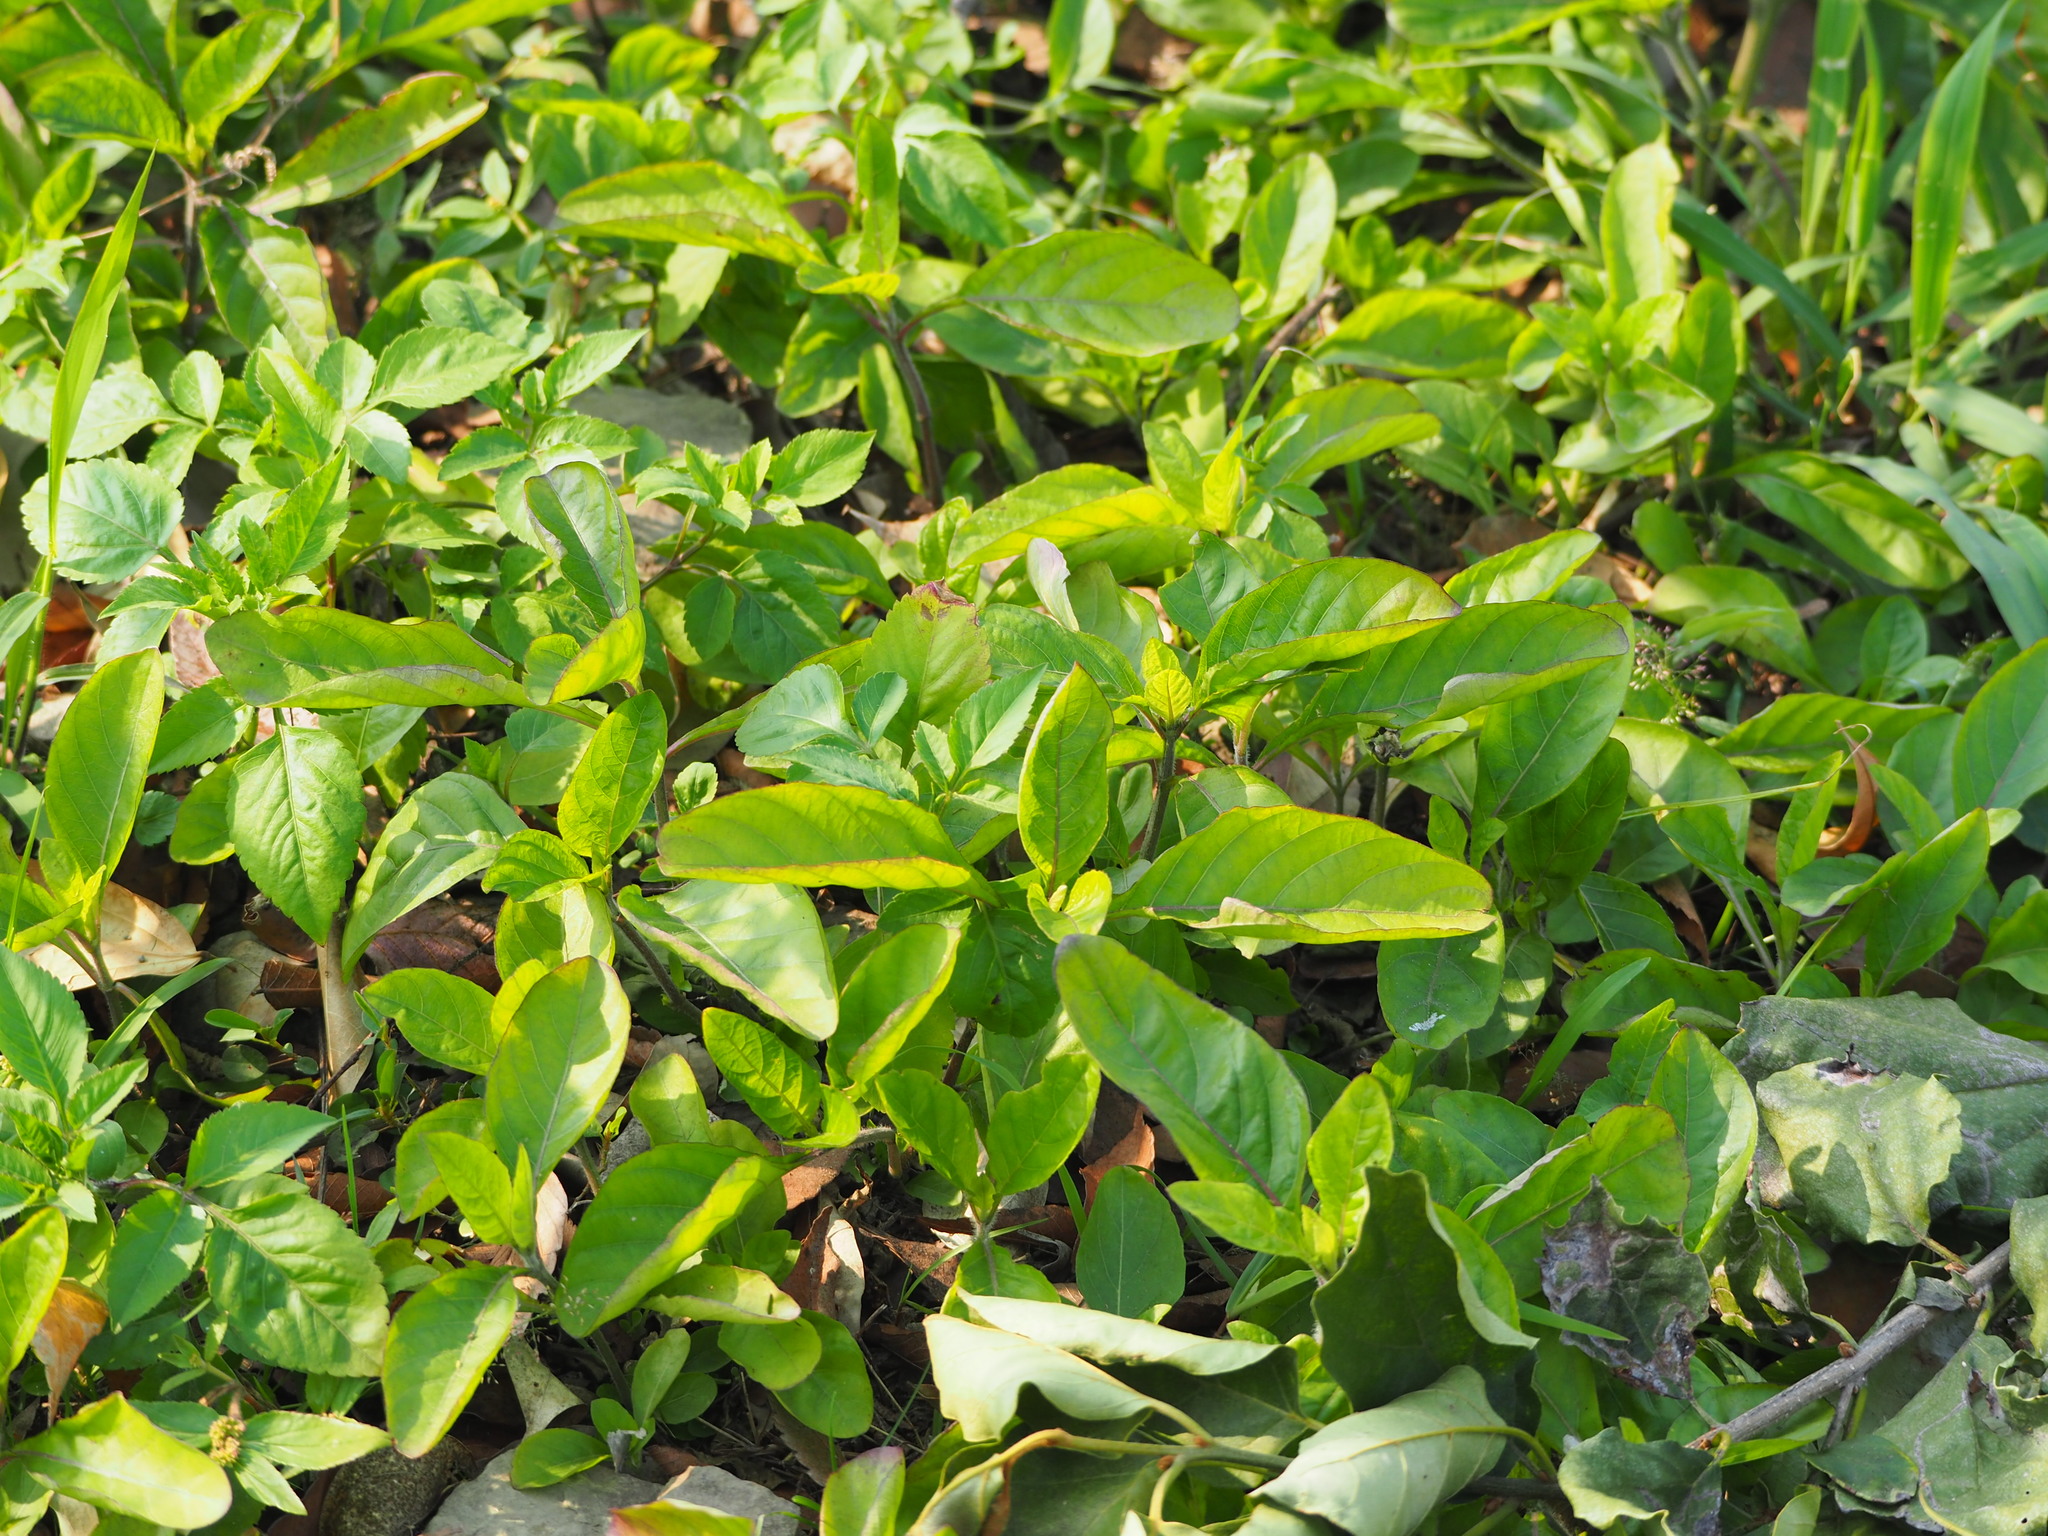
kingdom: Plantae
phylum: Tracheophyta
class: Magnoliopsida
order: Lamiales
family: Acanthaceae
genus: Ruellia
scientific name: Ruellia tuberosa
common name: Devil's bit
